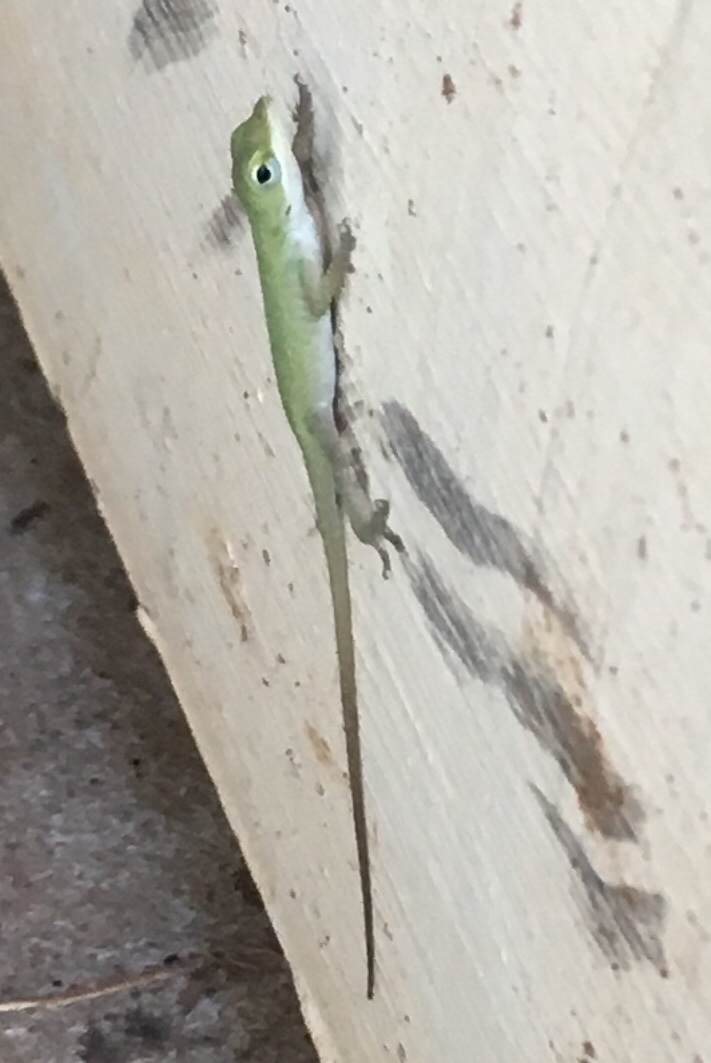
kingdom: Animalia
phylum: Chordata
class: Squamata
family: Dactyloidae
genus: Anolis
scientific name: Anolis carolinensis
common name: Green anole
